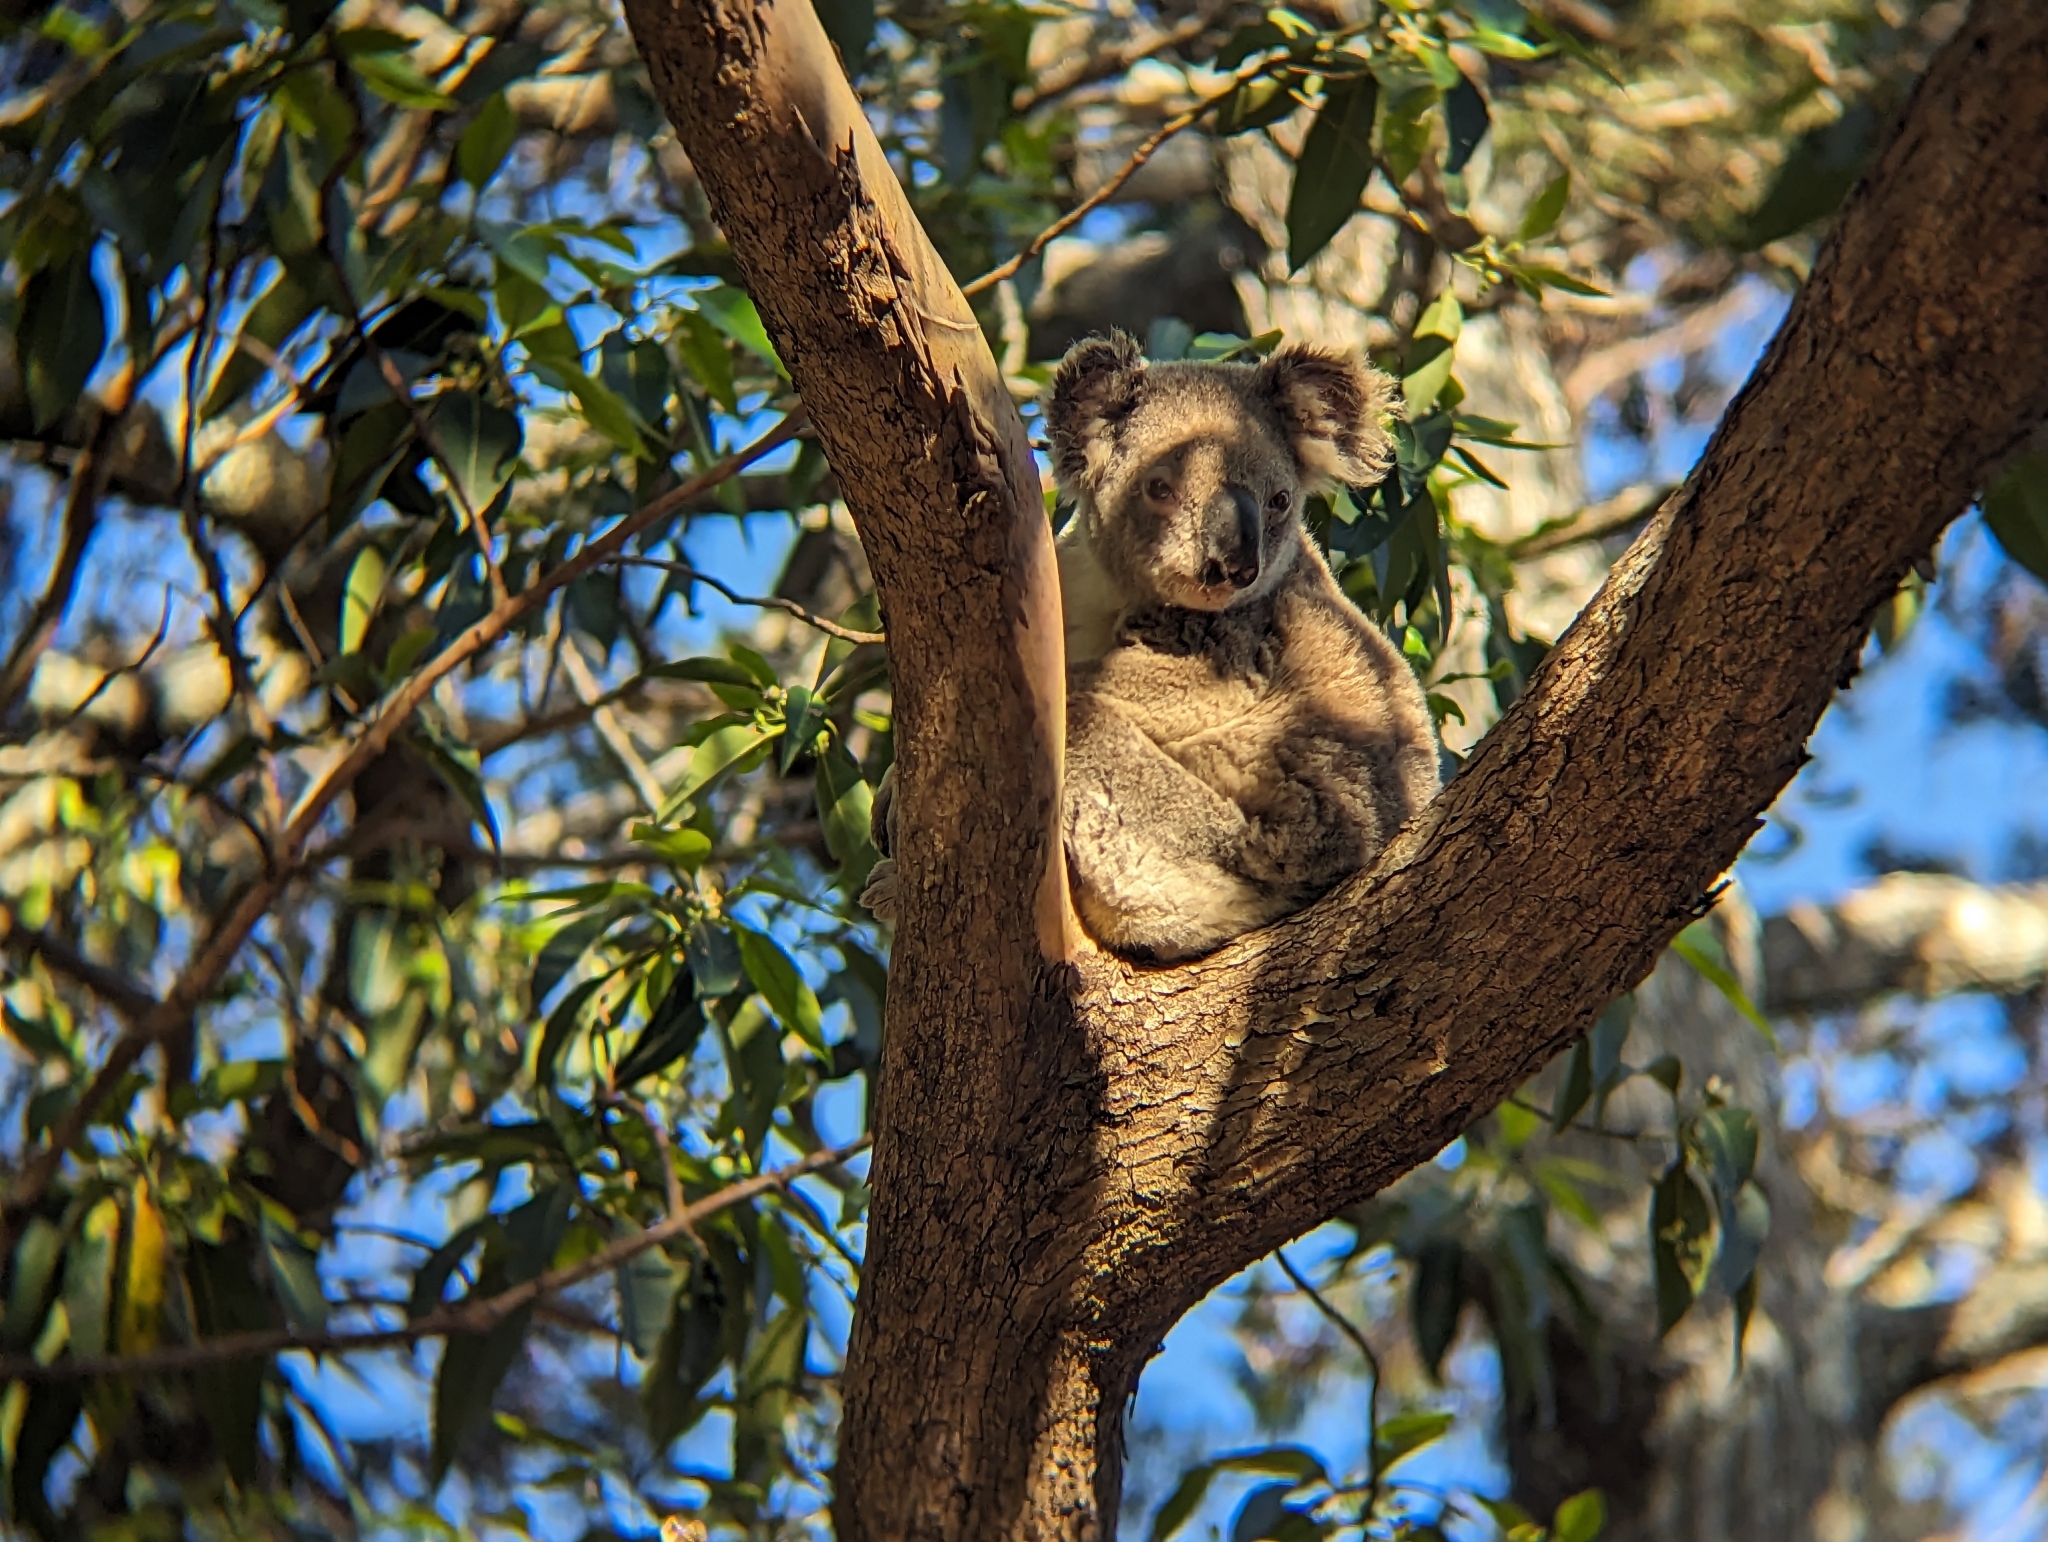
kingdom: Animalia
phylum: Chordata
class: Mammalia
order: Diprotodontia
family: Phascolarctidae
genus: Phascolarctos
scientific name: Phascolarctos cinereus
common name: Koala
